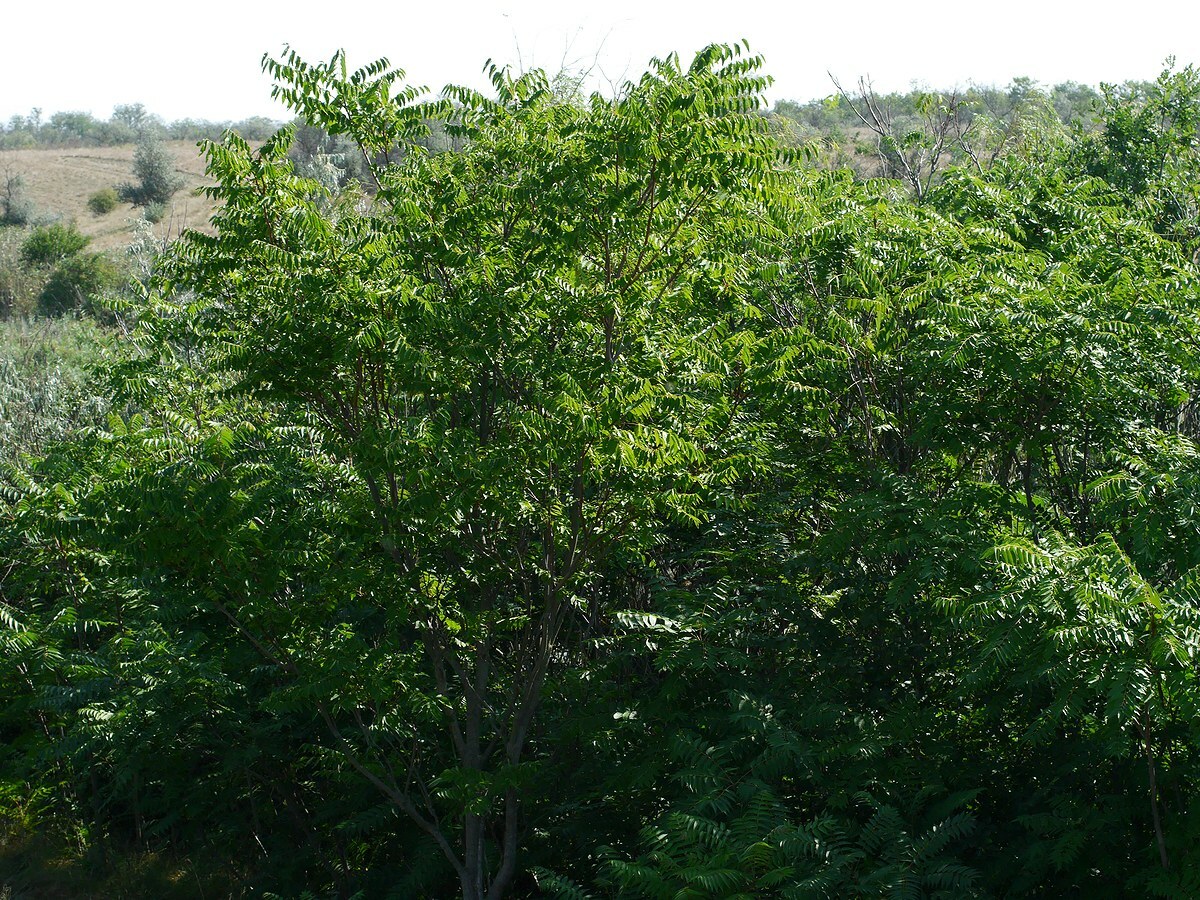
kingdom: Plantae
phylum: Tracheophyta
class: Magnoliopsida
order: Sapindales
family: Simaroubaceae
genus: Ailanthus
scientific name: Ailanthus altissima
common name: Tree-of-heaven
